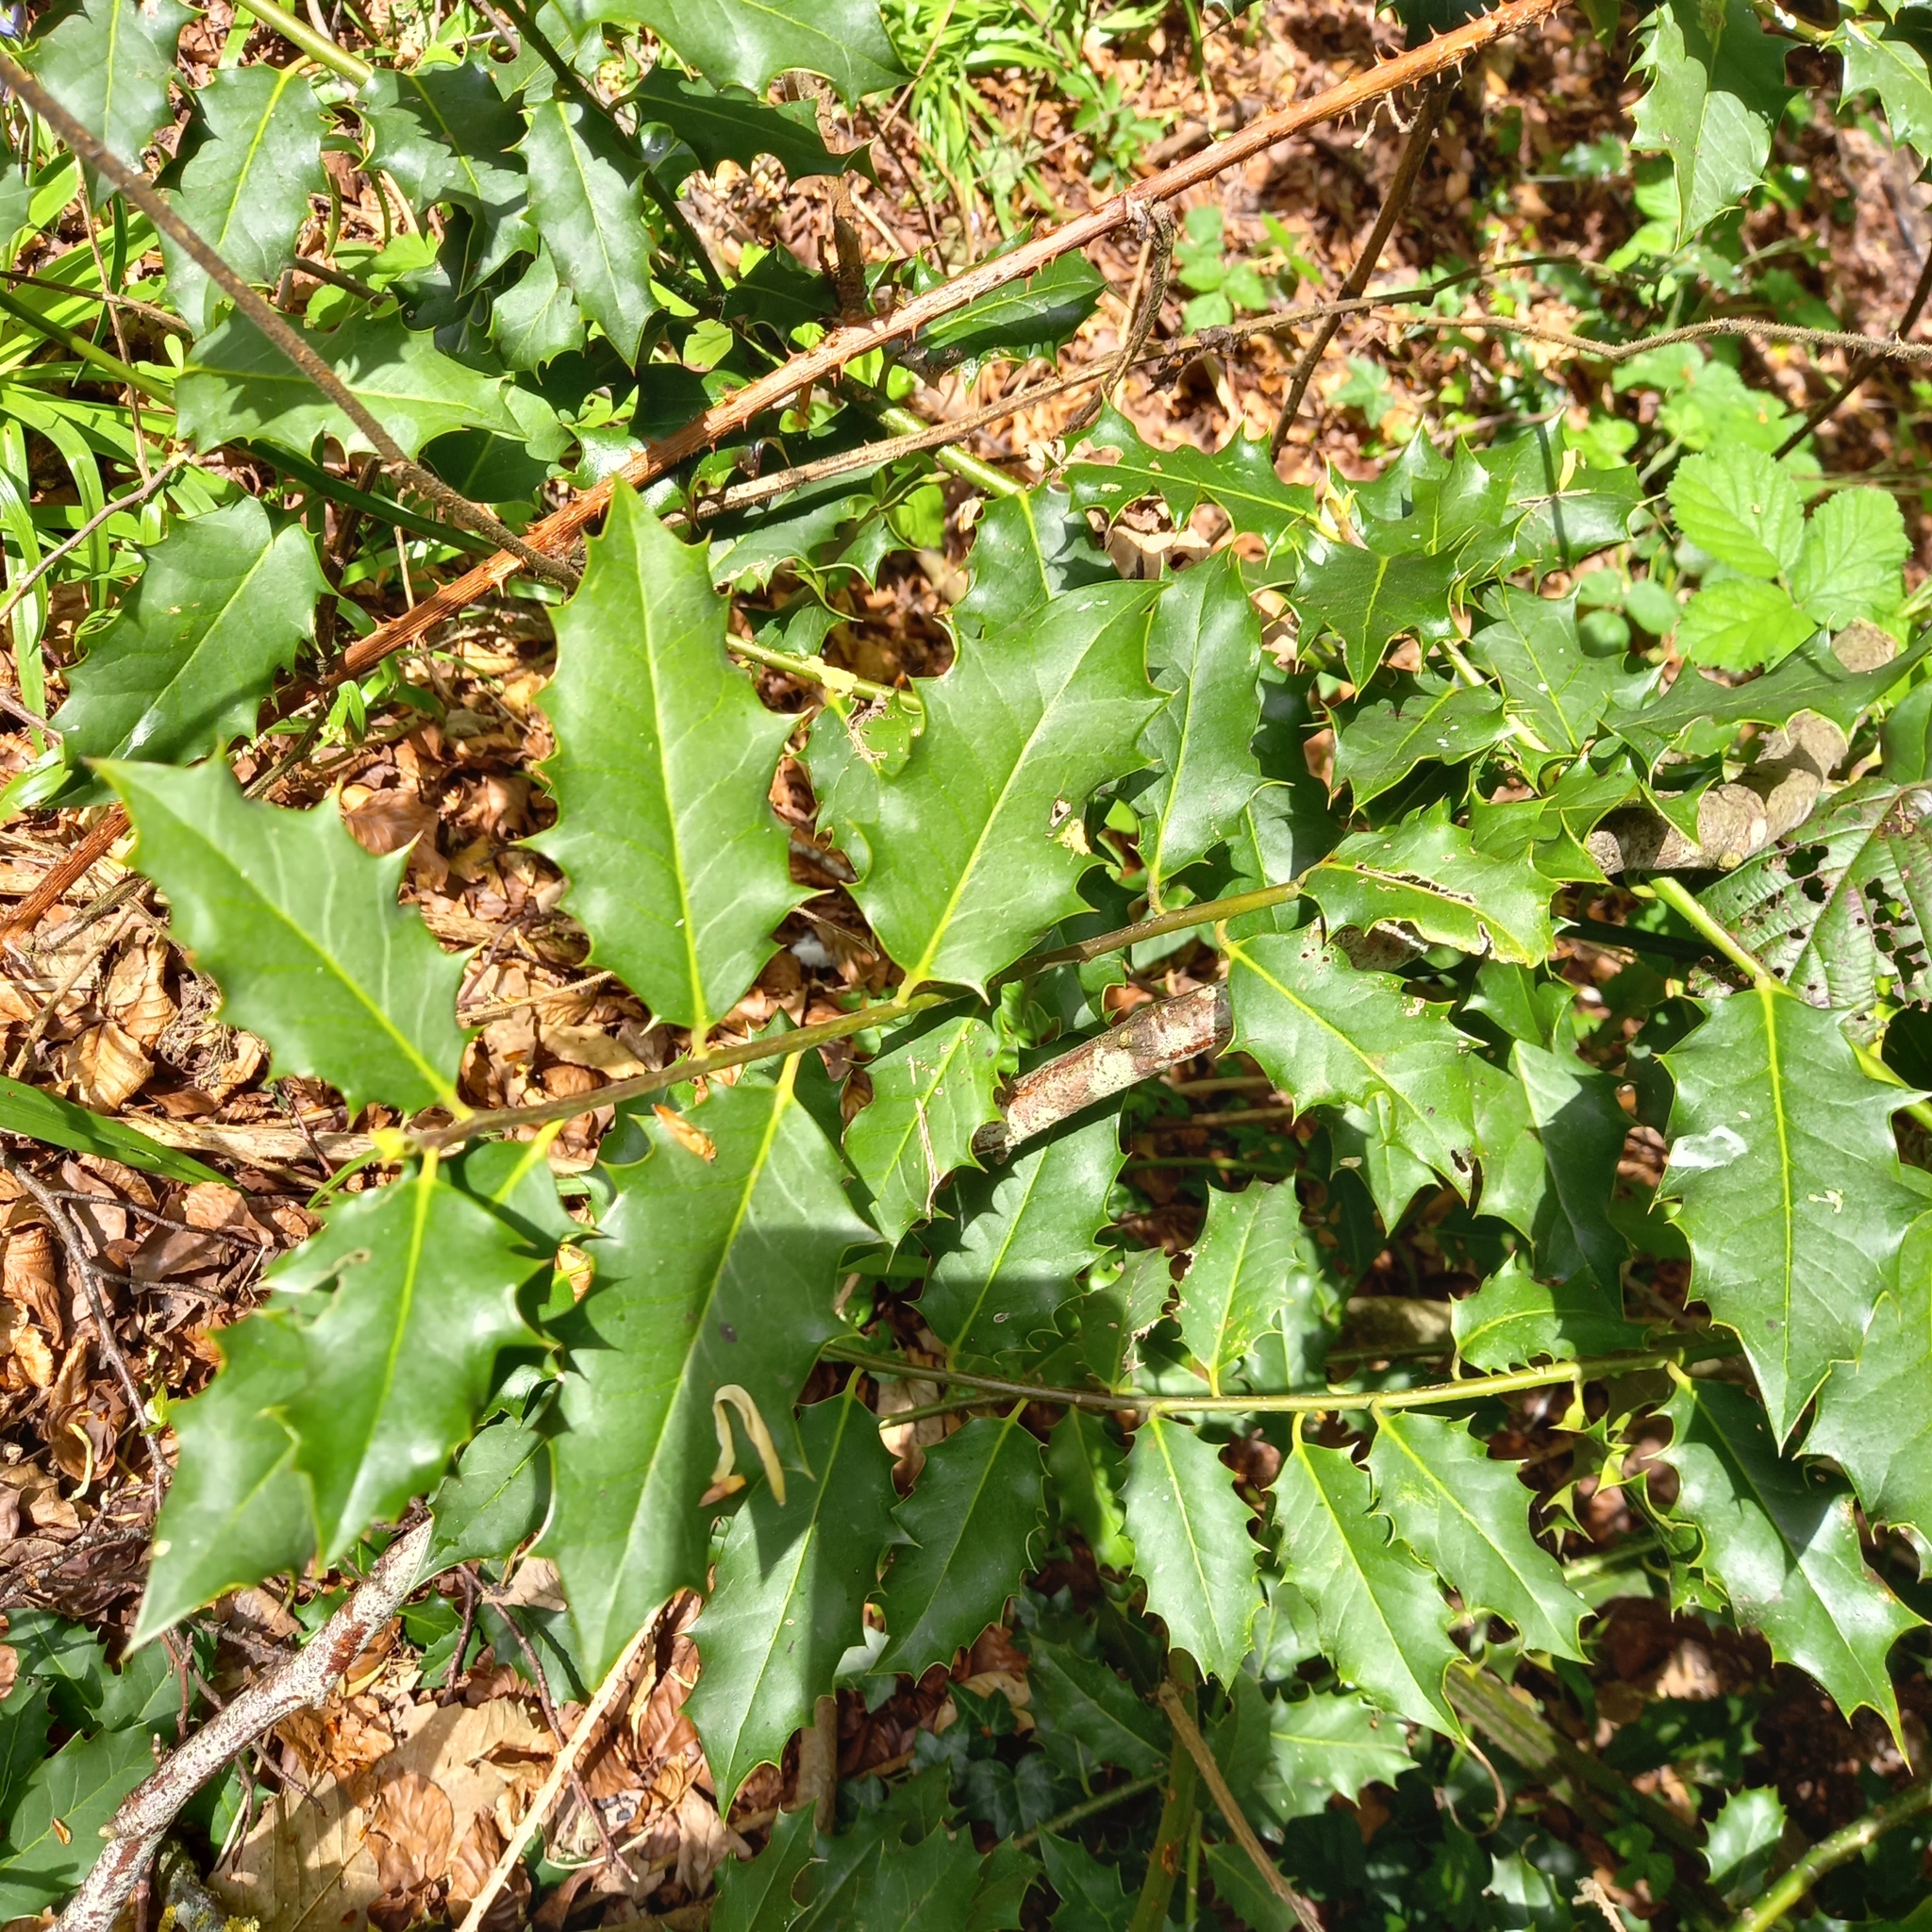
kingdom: Plantae
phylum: Tracheophyta
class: Magnoliopsida
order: Aquifoliales
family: Aquifoliaceae
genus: Ilex
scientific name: Ilex aquifolium
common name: English holly
